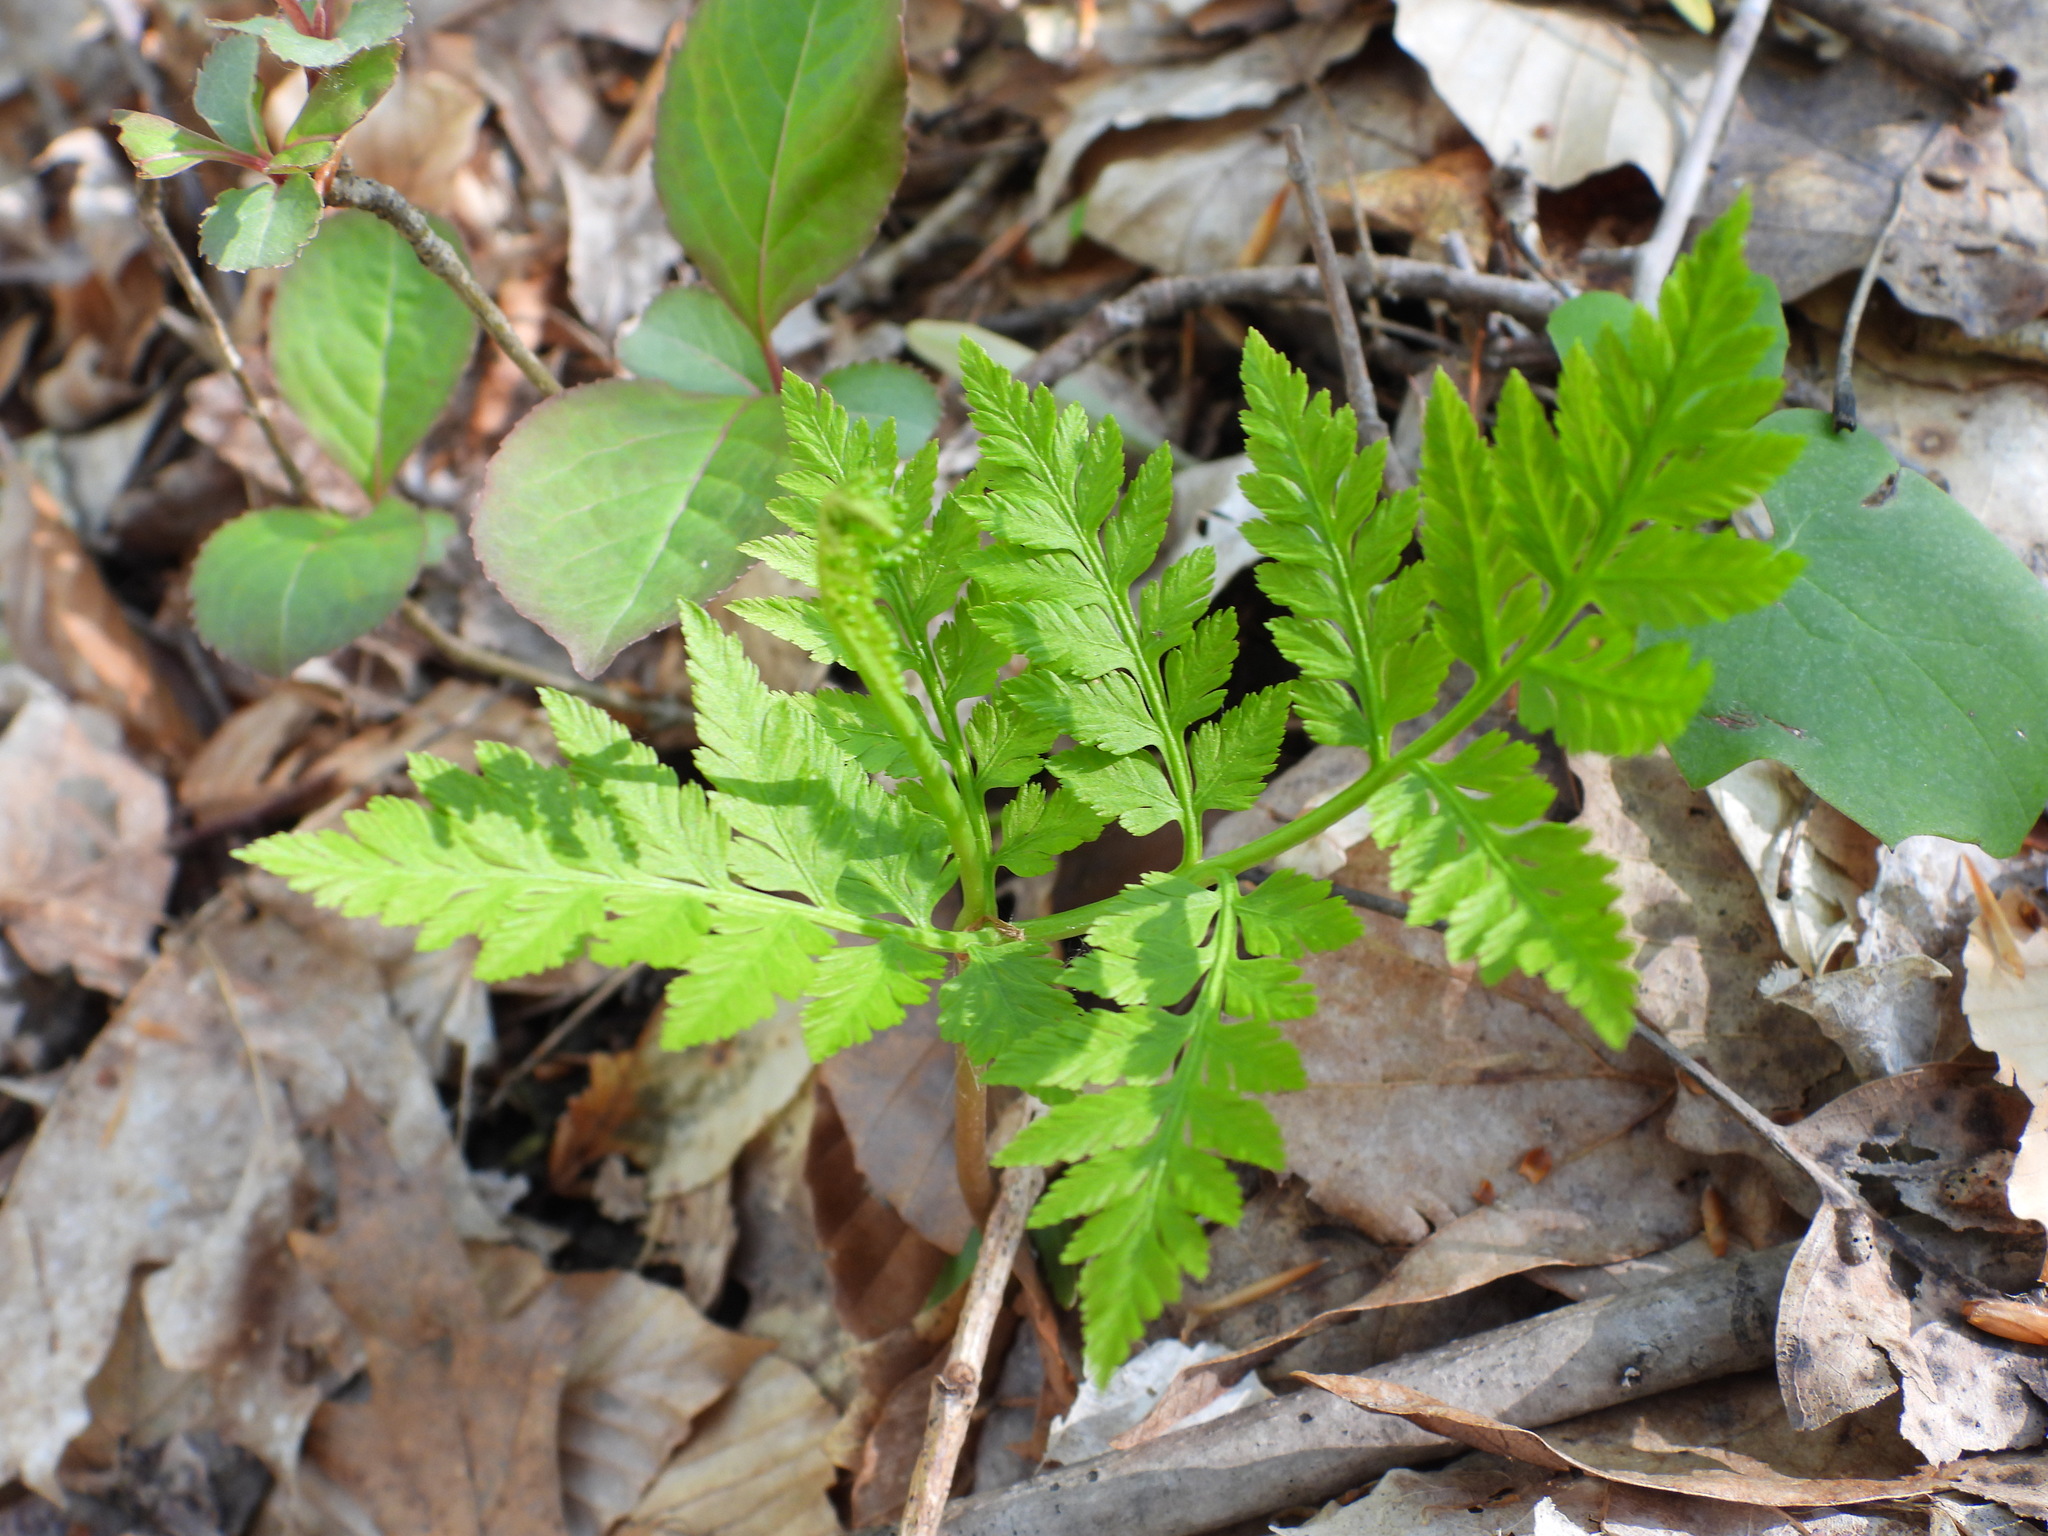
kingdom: Plantae
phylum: Tracheophyta
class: Polypodiopsida
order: Ophioglossales
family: Ophioglossaceae
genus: Botrypus
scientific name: Botrypus virginianus
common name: Common grapefern
